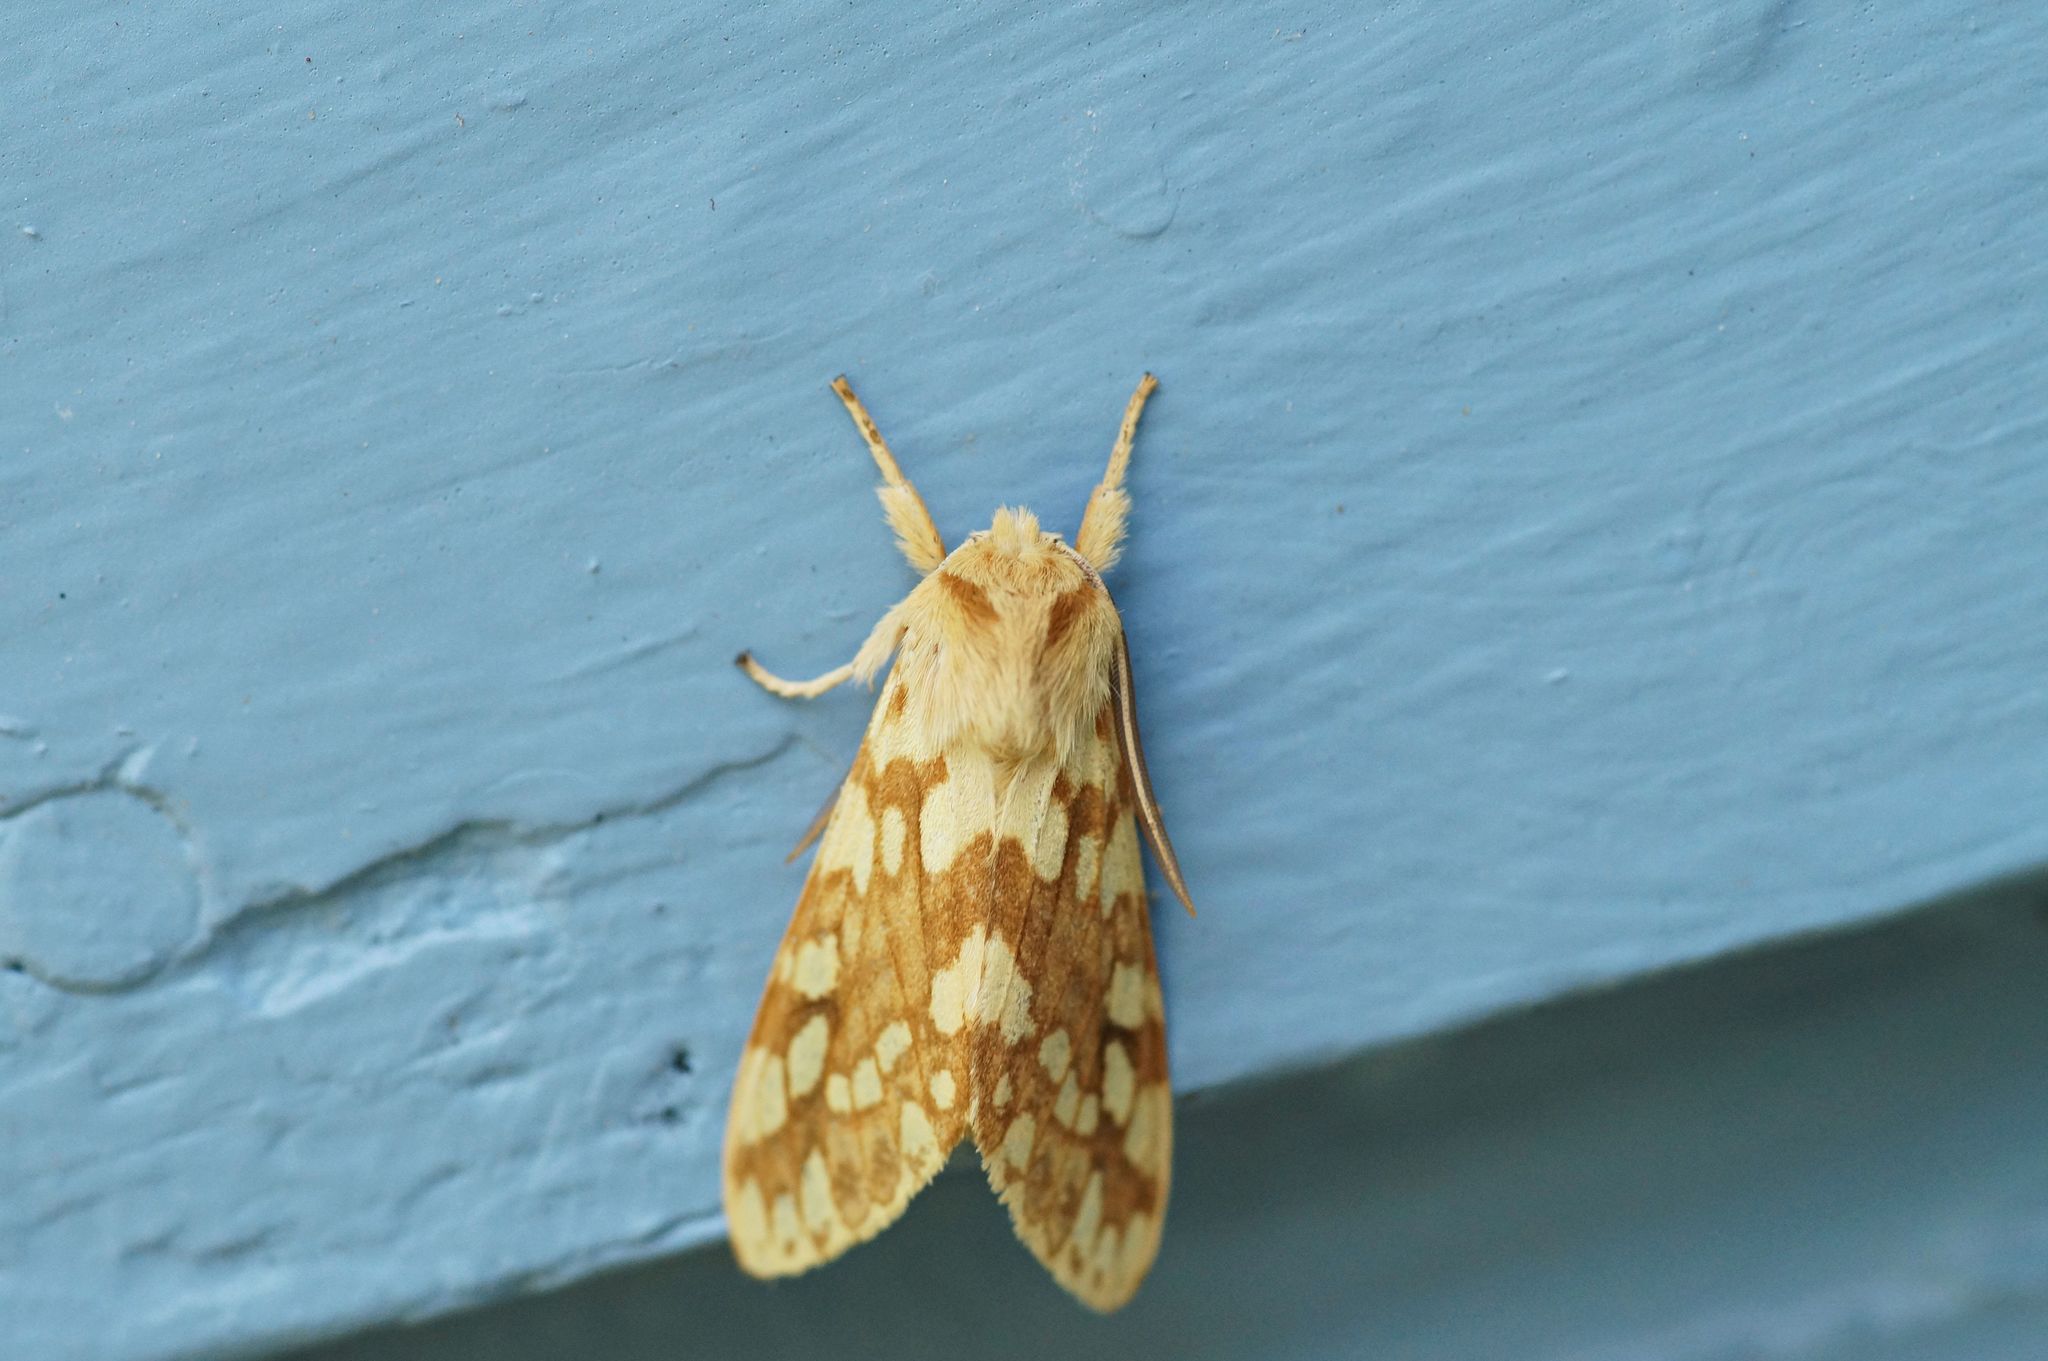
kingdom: Animalia
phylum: Arthropoda
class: Insecta
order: Lepidoptera
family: Erebidae
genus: Lophocampa
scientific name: Lophocampa maculata
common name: Spotted tussock moth
